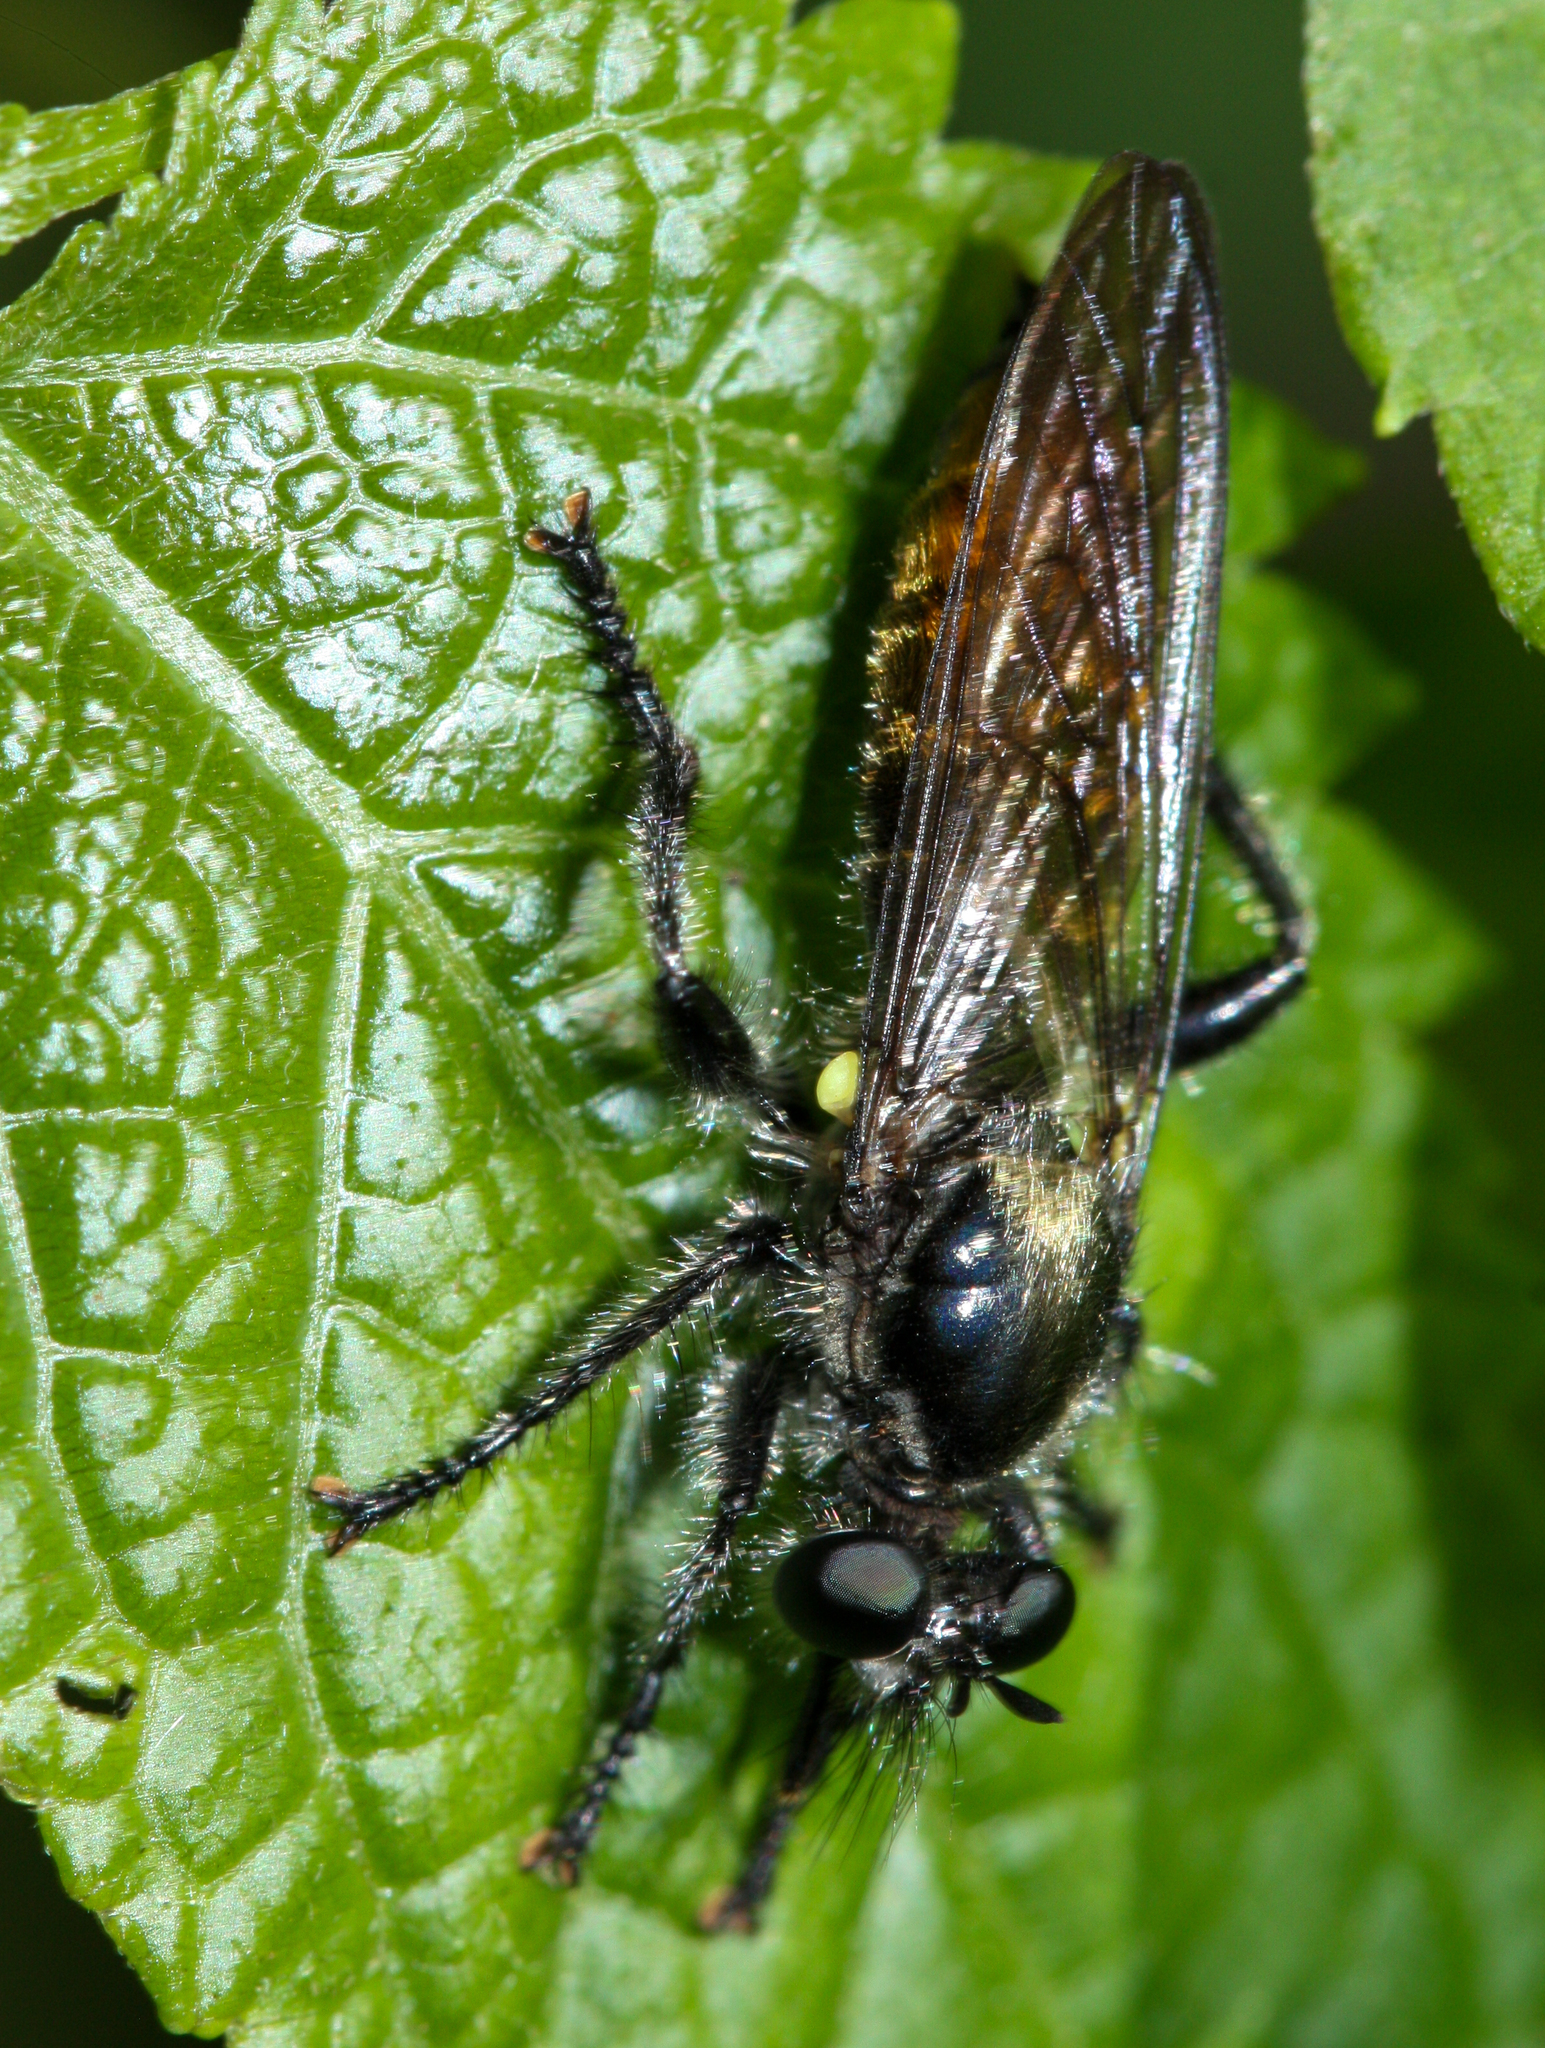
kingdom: Animalia
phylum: Arthropoda
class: Insecta
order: Diptera
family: Asilidae
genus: Laphria
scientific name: Laphria
